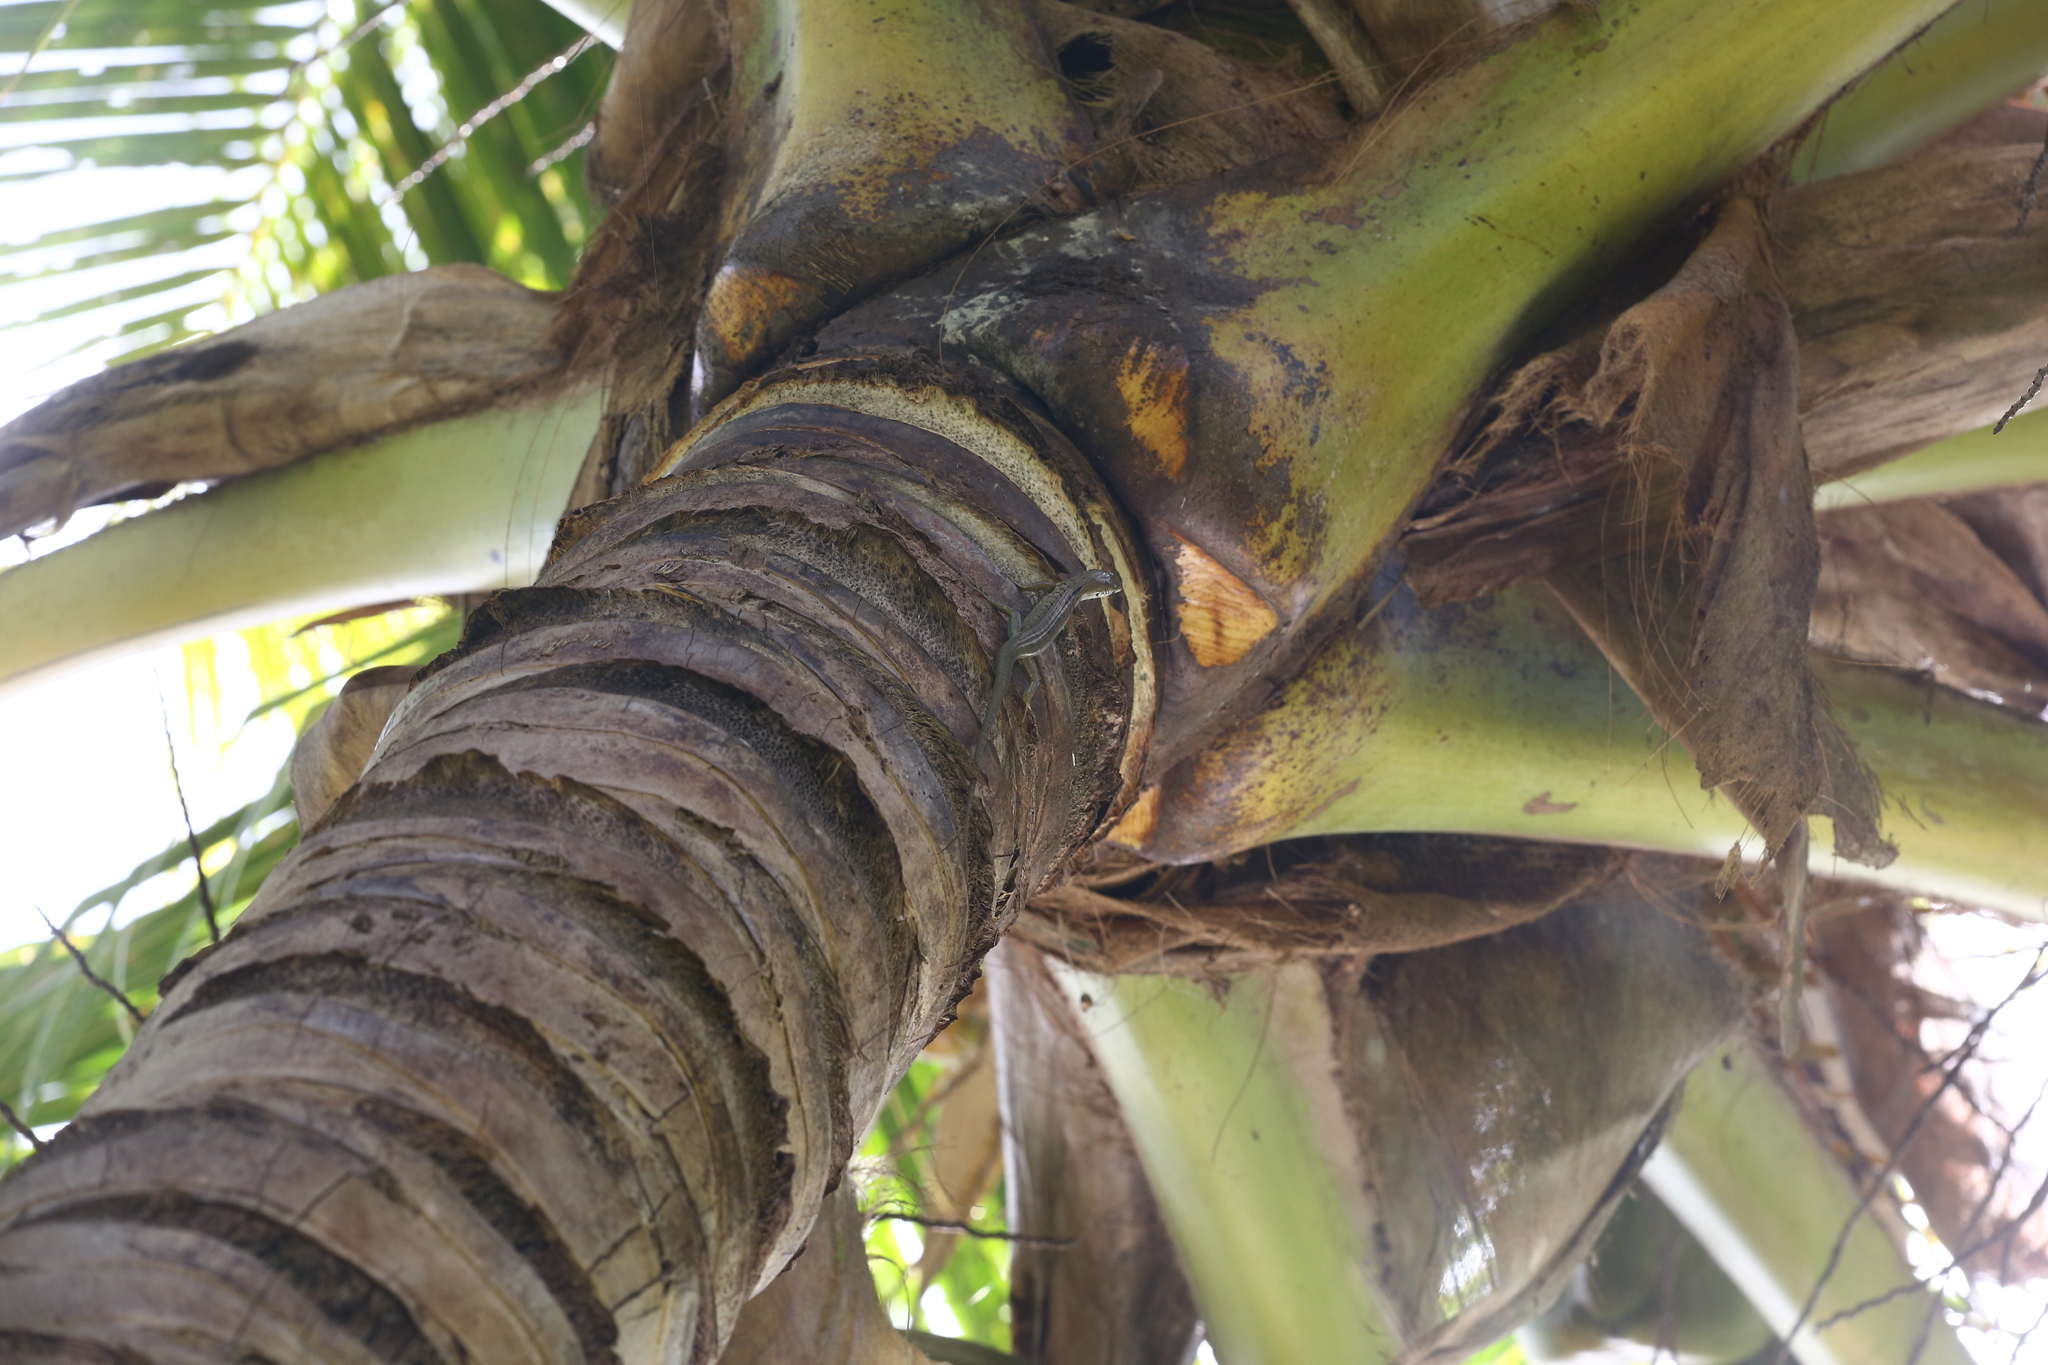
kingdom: Animalia
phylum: Chordata
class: Squamata
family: Scincidae
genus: Epibator
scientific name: Epibator nigrofasciolatus
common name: Green-bellied tree skink
